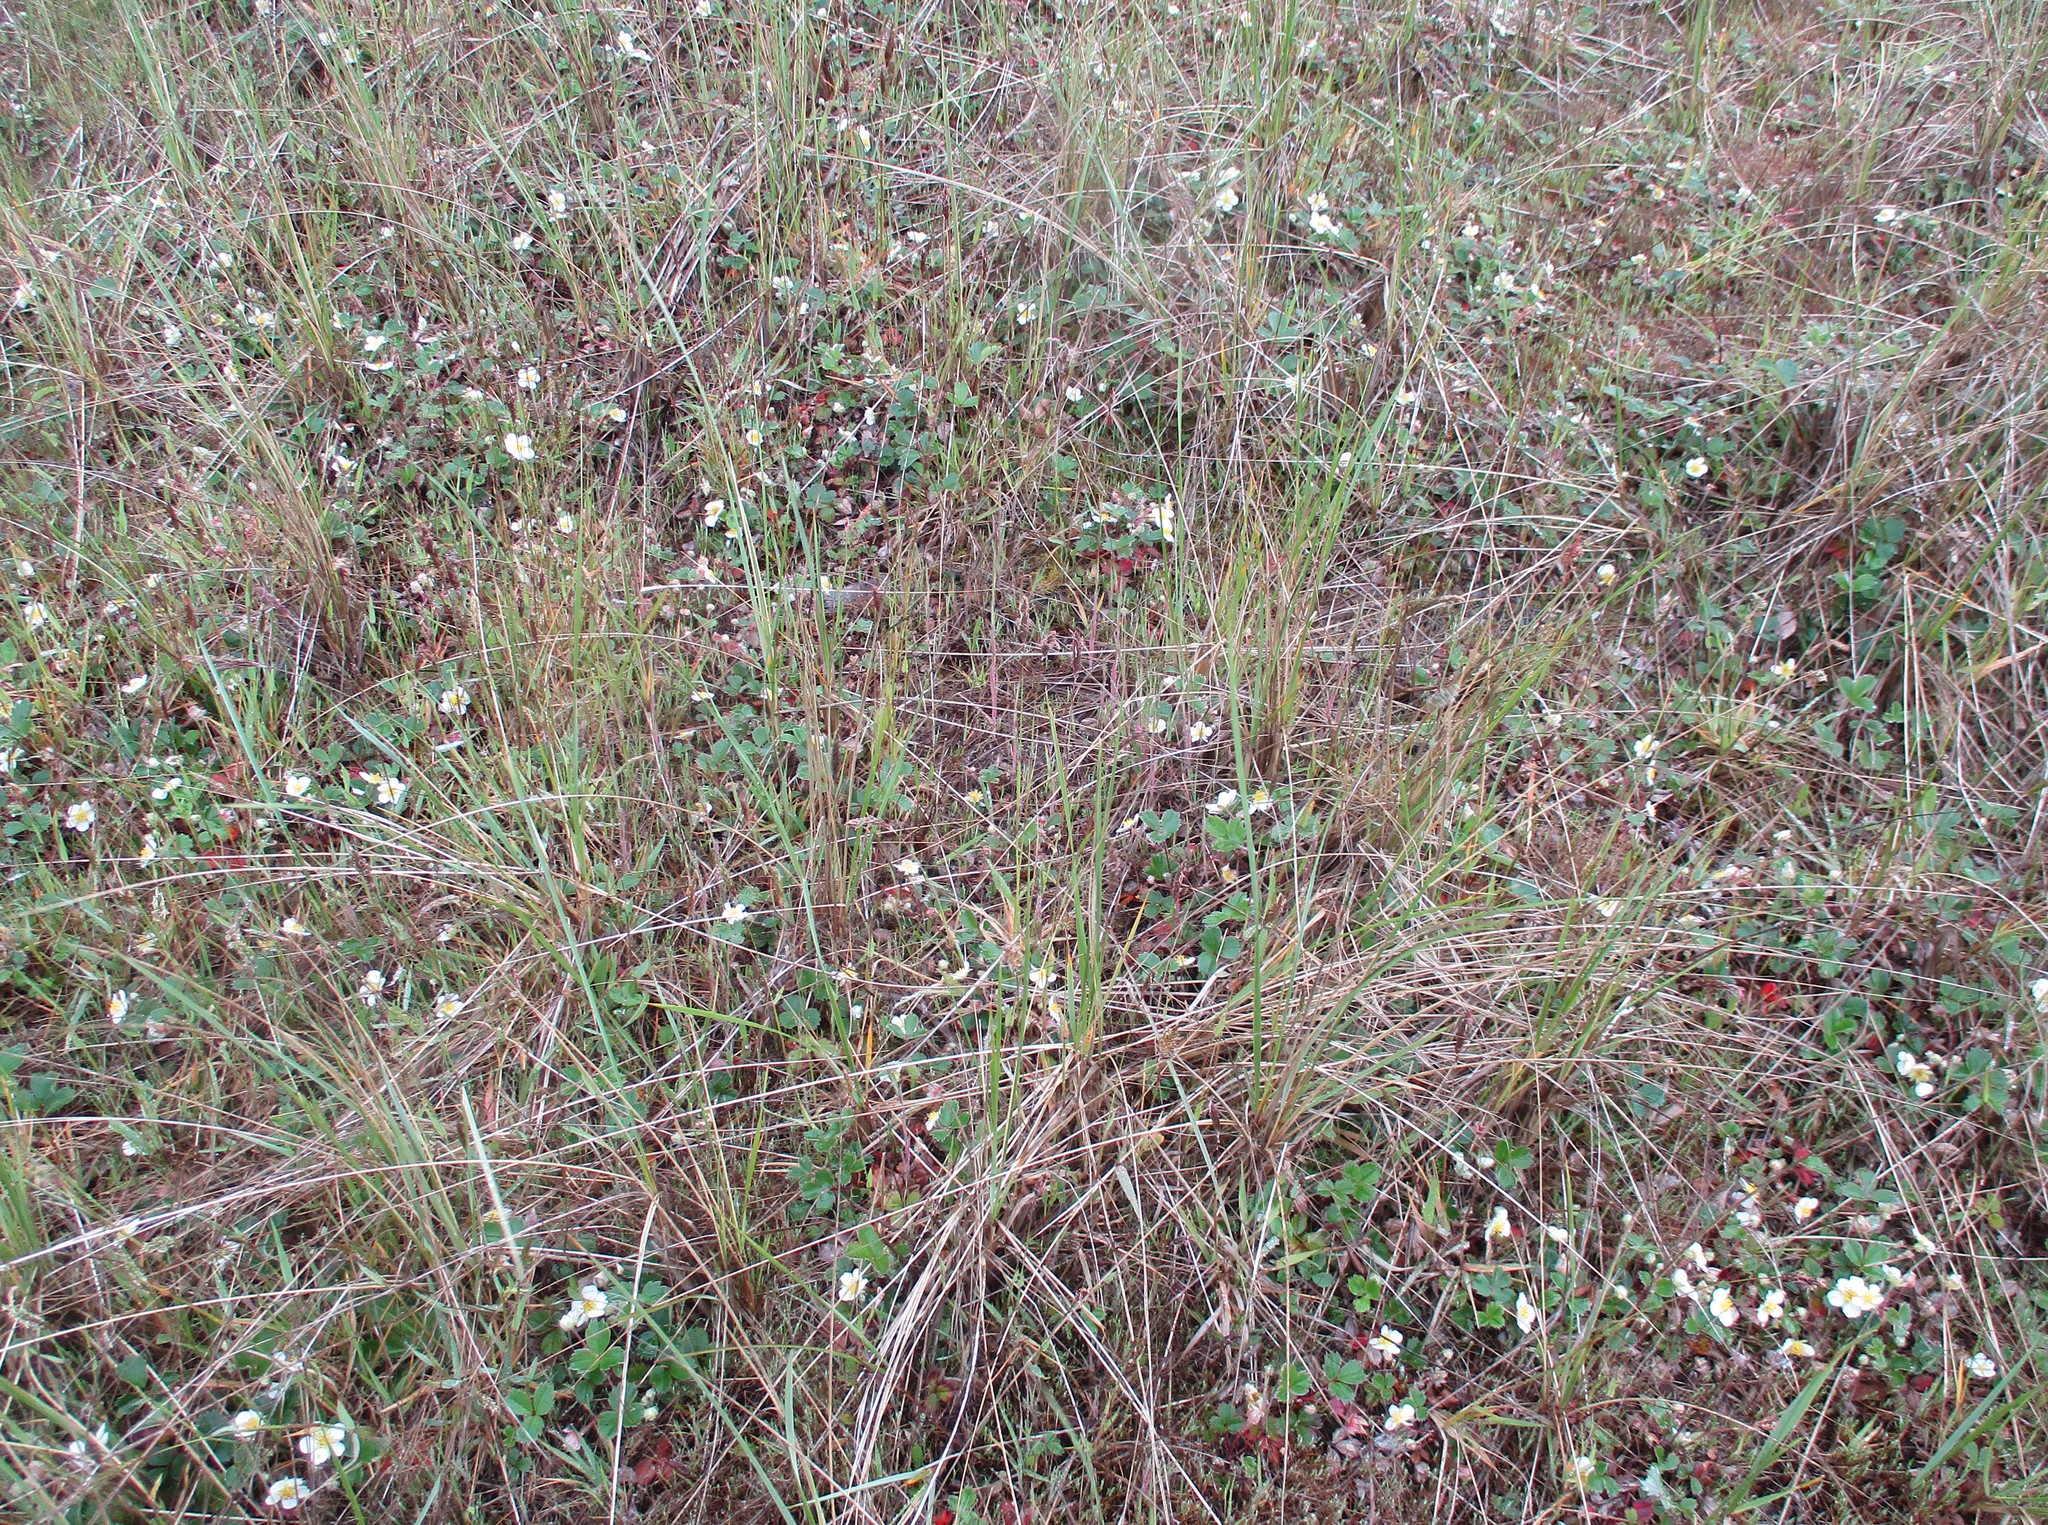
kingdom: Plantae
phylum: Tracheophyta
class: Magnoliopsida
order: Rosales
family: Rosaceae
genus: Fragaria
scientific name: Fragaria chiloensis
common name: Beach strawberry
